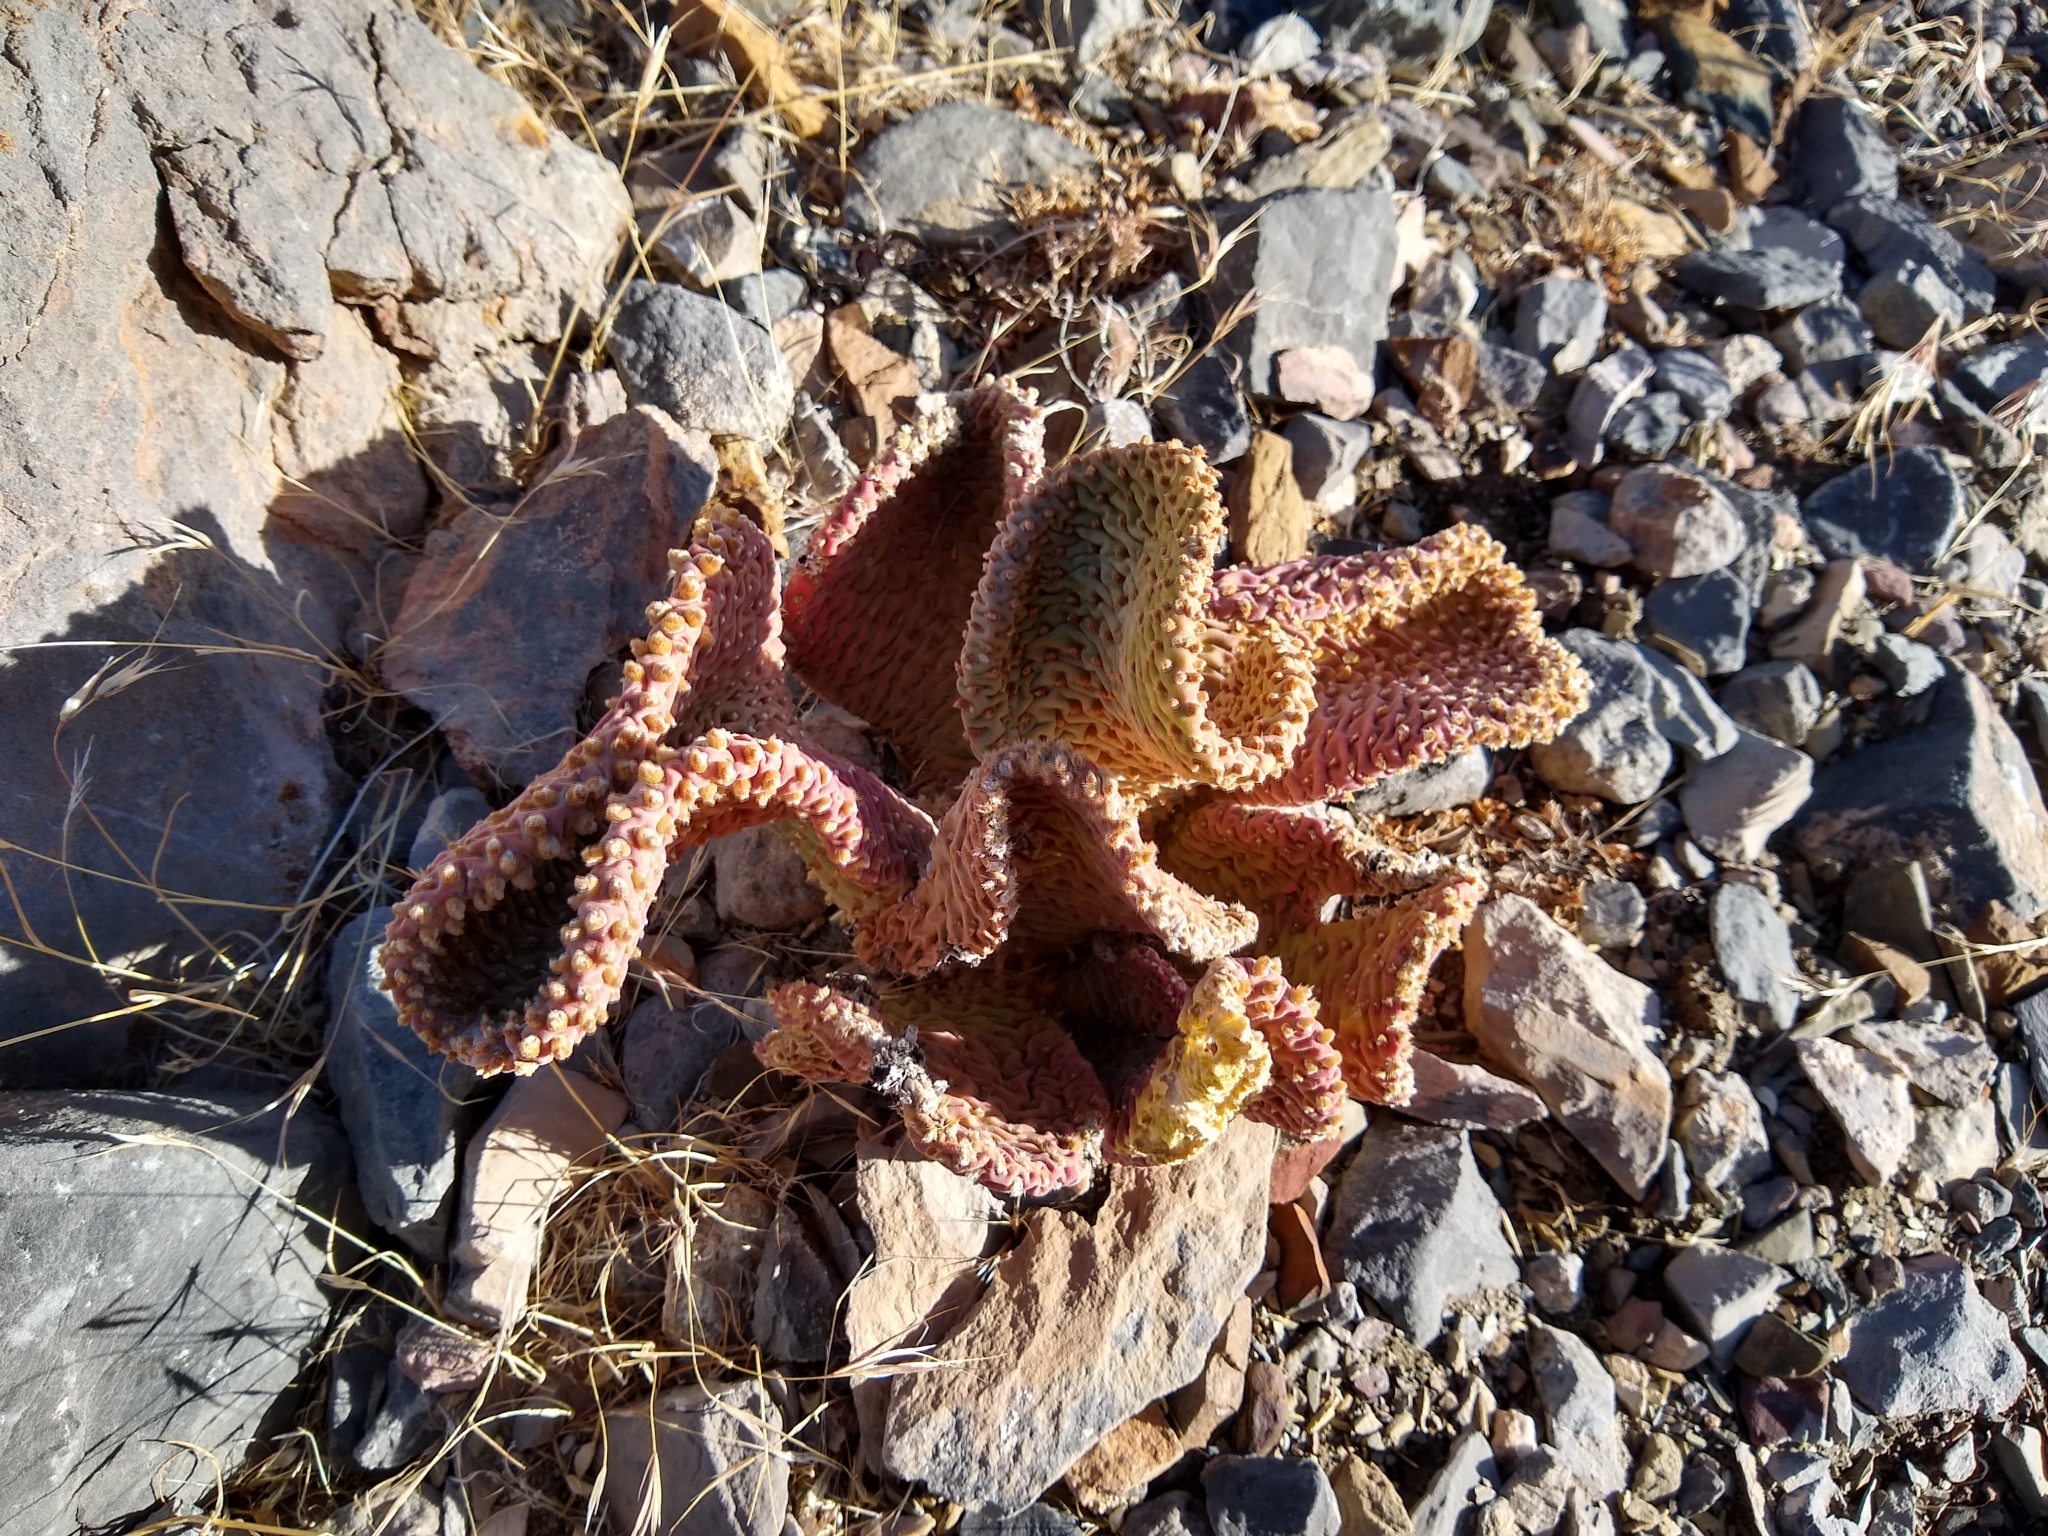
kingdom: Plantae
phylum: Tracheophyta
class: Magnoliopsida
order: Caryophyllales
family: Cactaceae
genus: Opuntia
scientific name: Opuntia basilaris
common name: Beavertail prickly-pear
